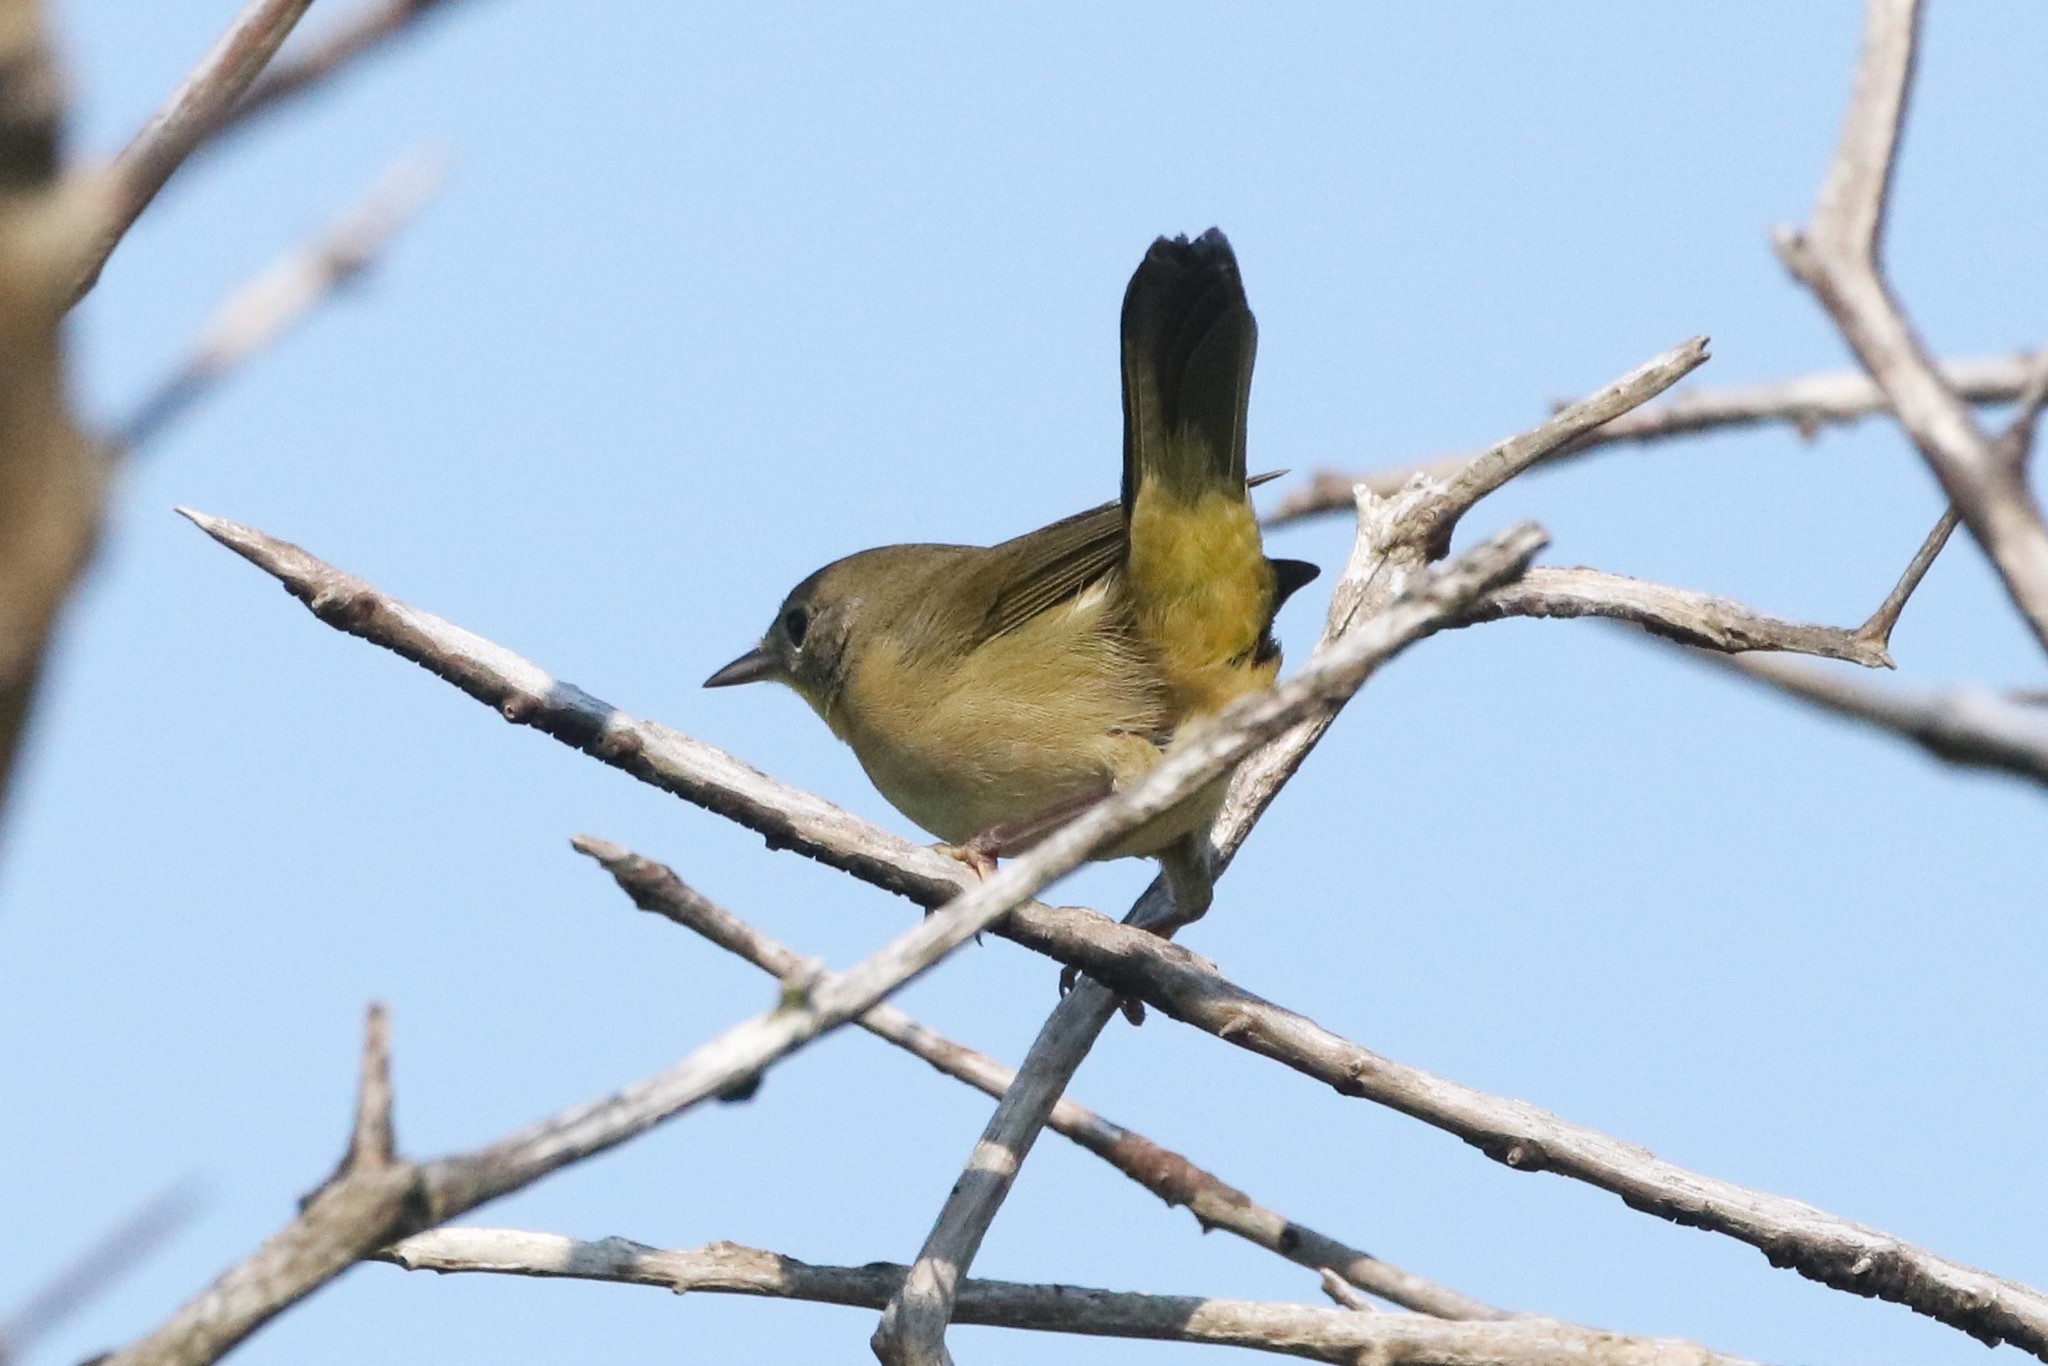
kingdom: Animalia
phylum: Chordata
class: Aves
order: Passeriformes
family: Parulidae
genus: Geothlypis
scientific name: Geothlypis trichas
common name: Common yellowthroat
